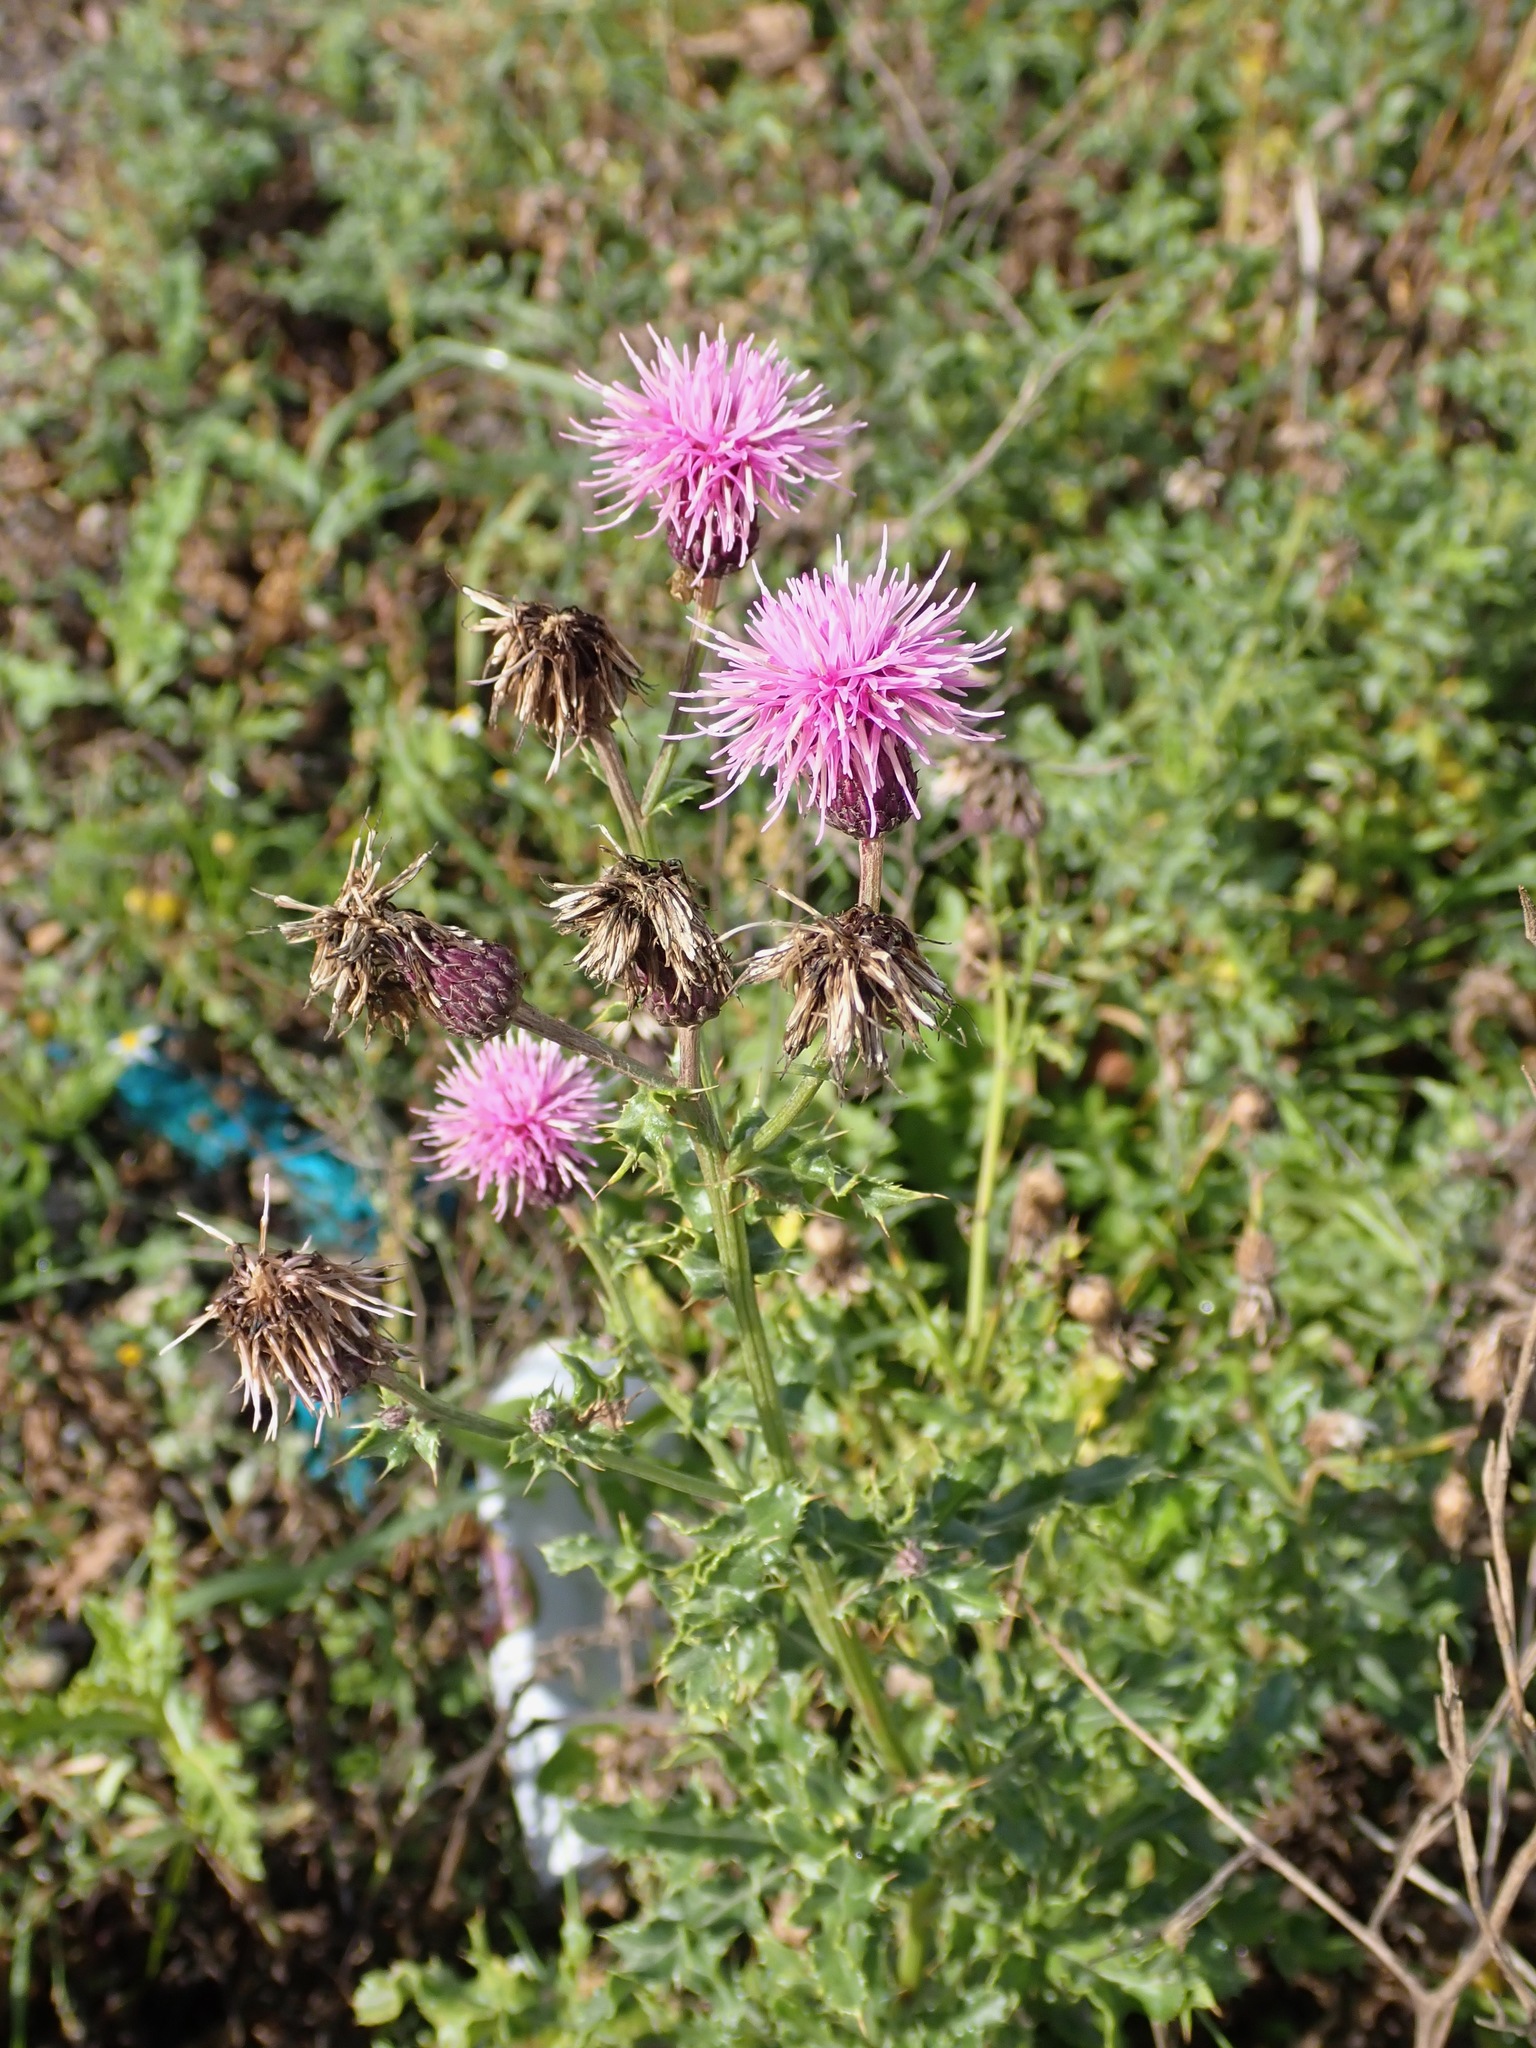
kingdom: Plantae
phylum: Tracheophyta
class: Magnoliopsida
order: Asterales
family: Asteraceae
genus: Cirsium
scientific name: Cirsium arvense
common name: Creeping thistle
